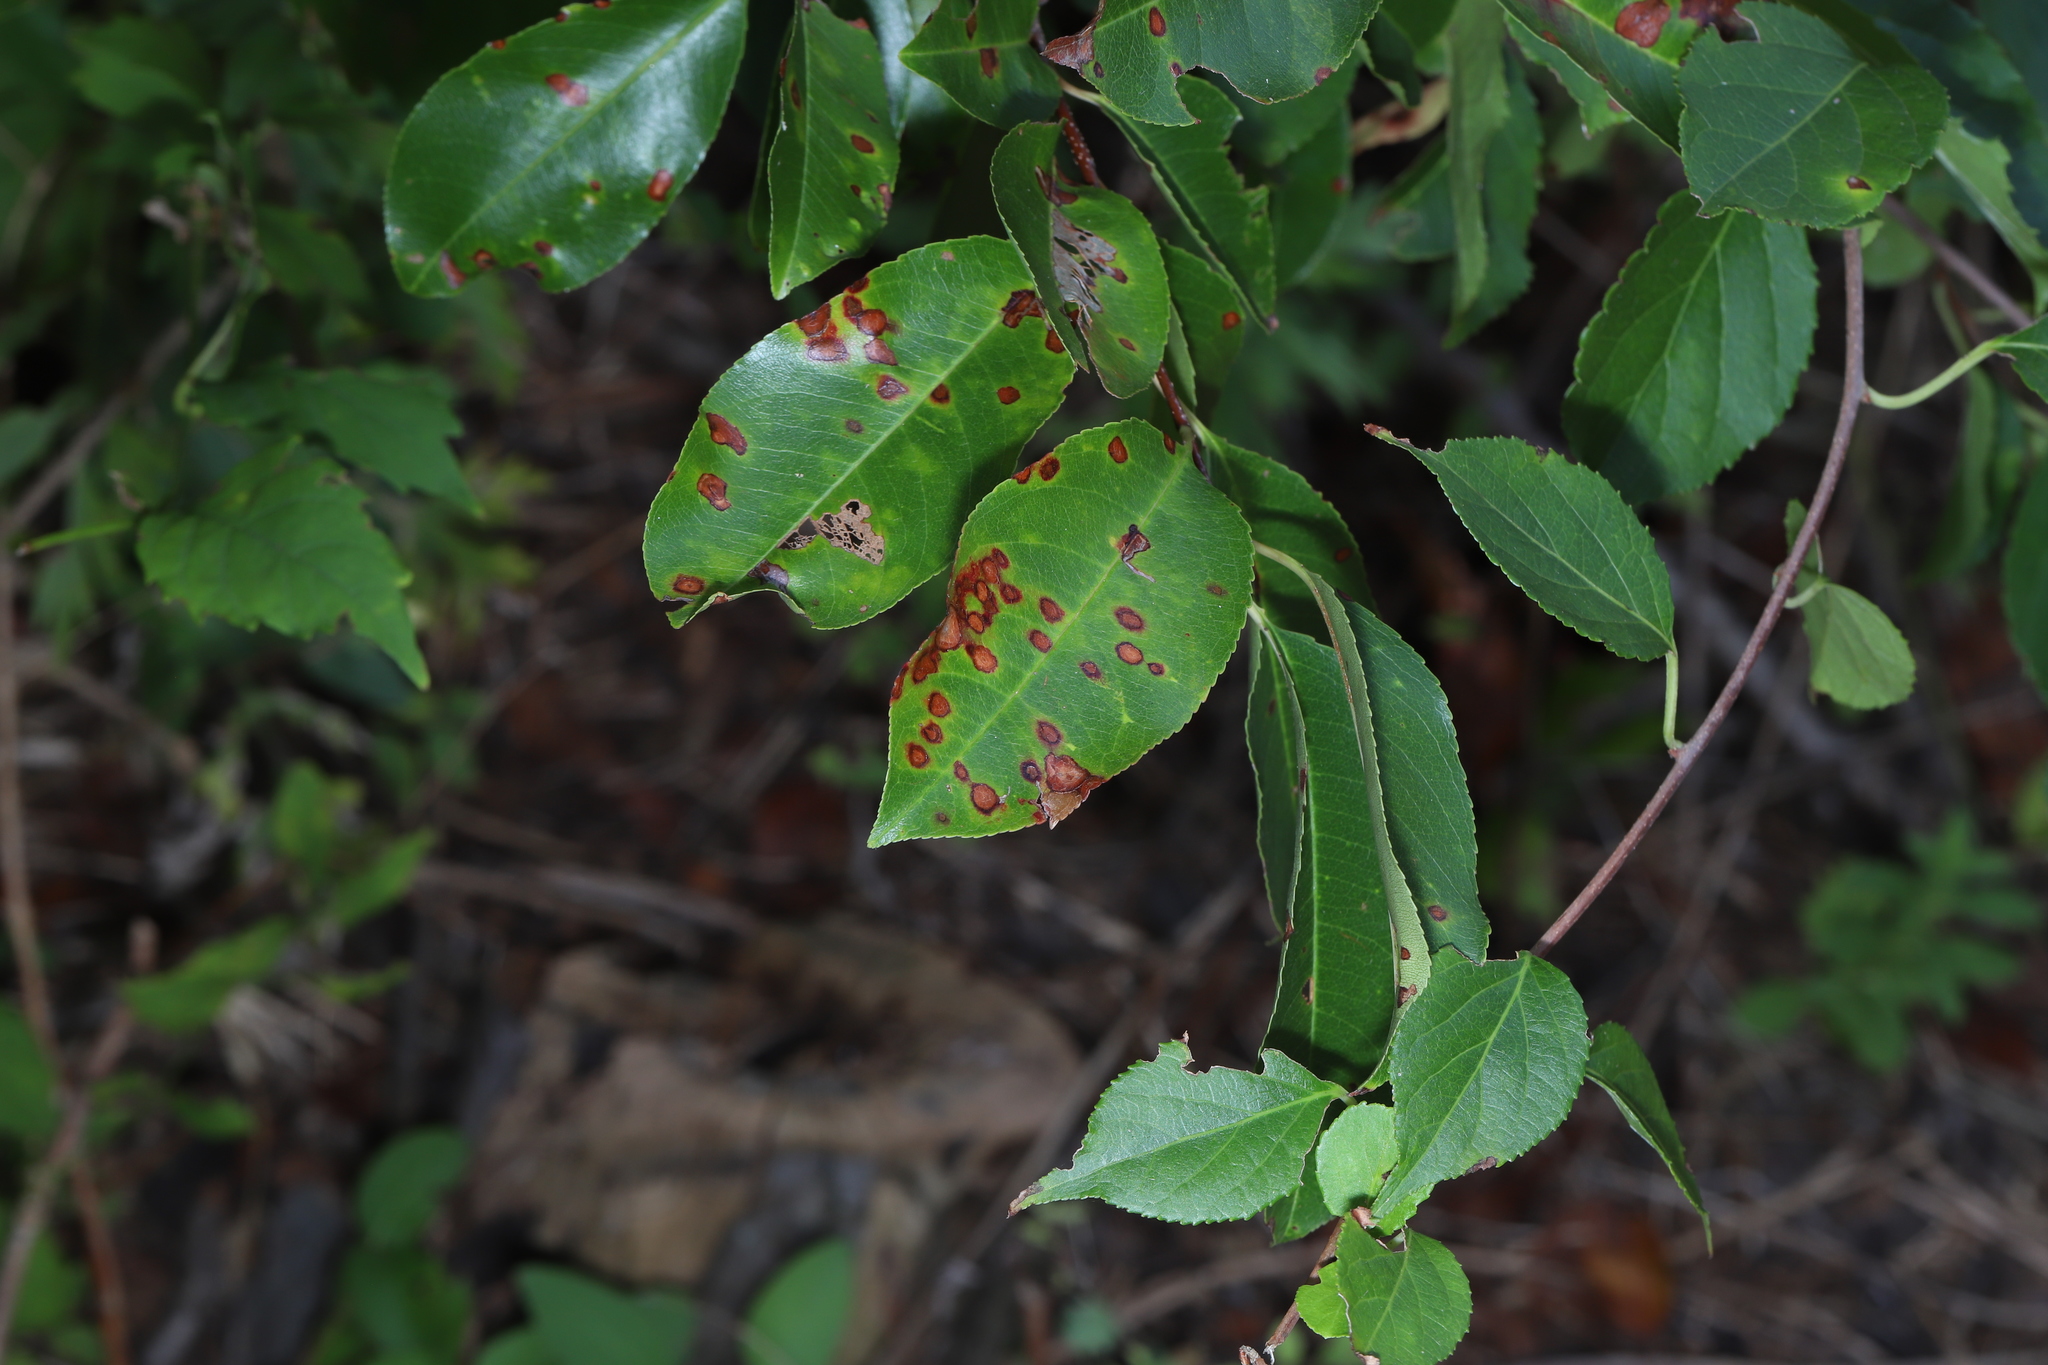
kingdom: Plantae
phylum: Tracheophyta
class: Magnoliopsida
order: Rosales
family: Rosaceae
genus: Prunus
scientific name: Prunus serotina
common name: Black cherry
